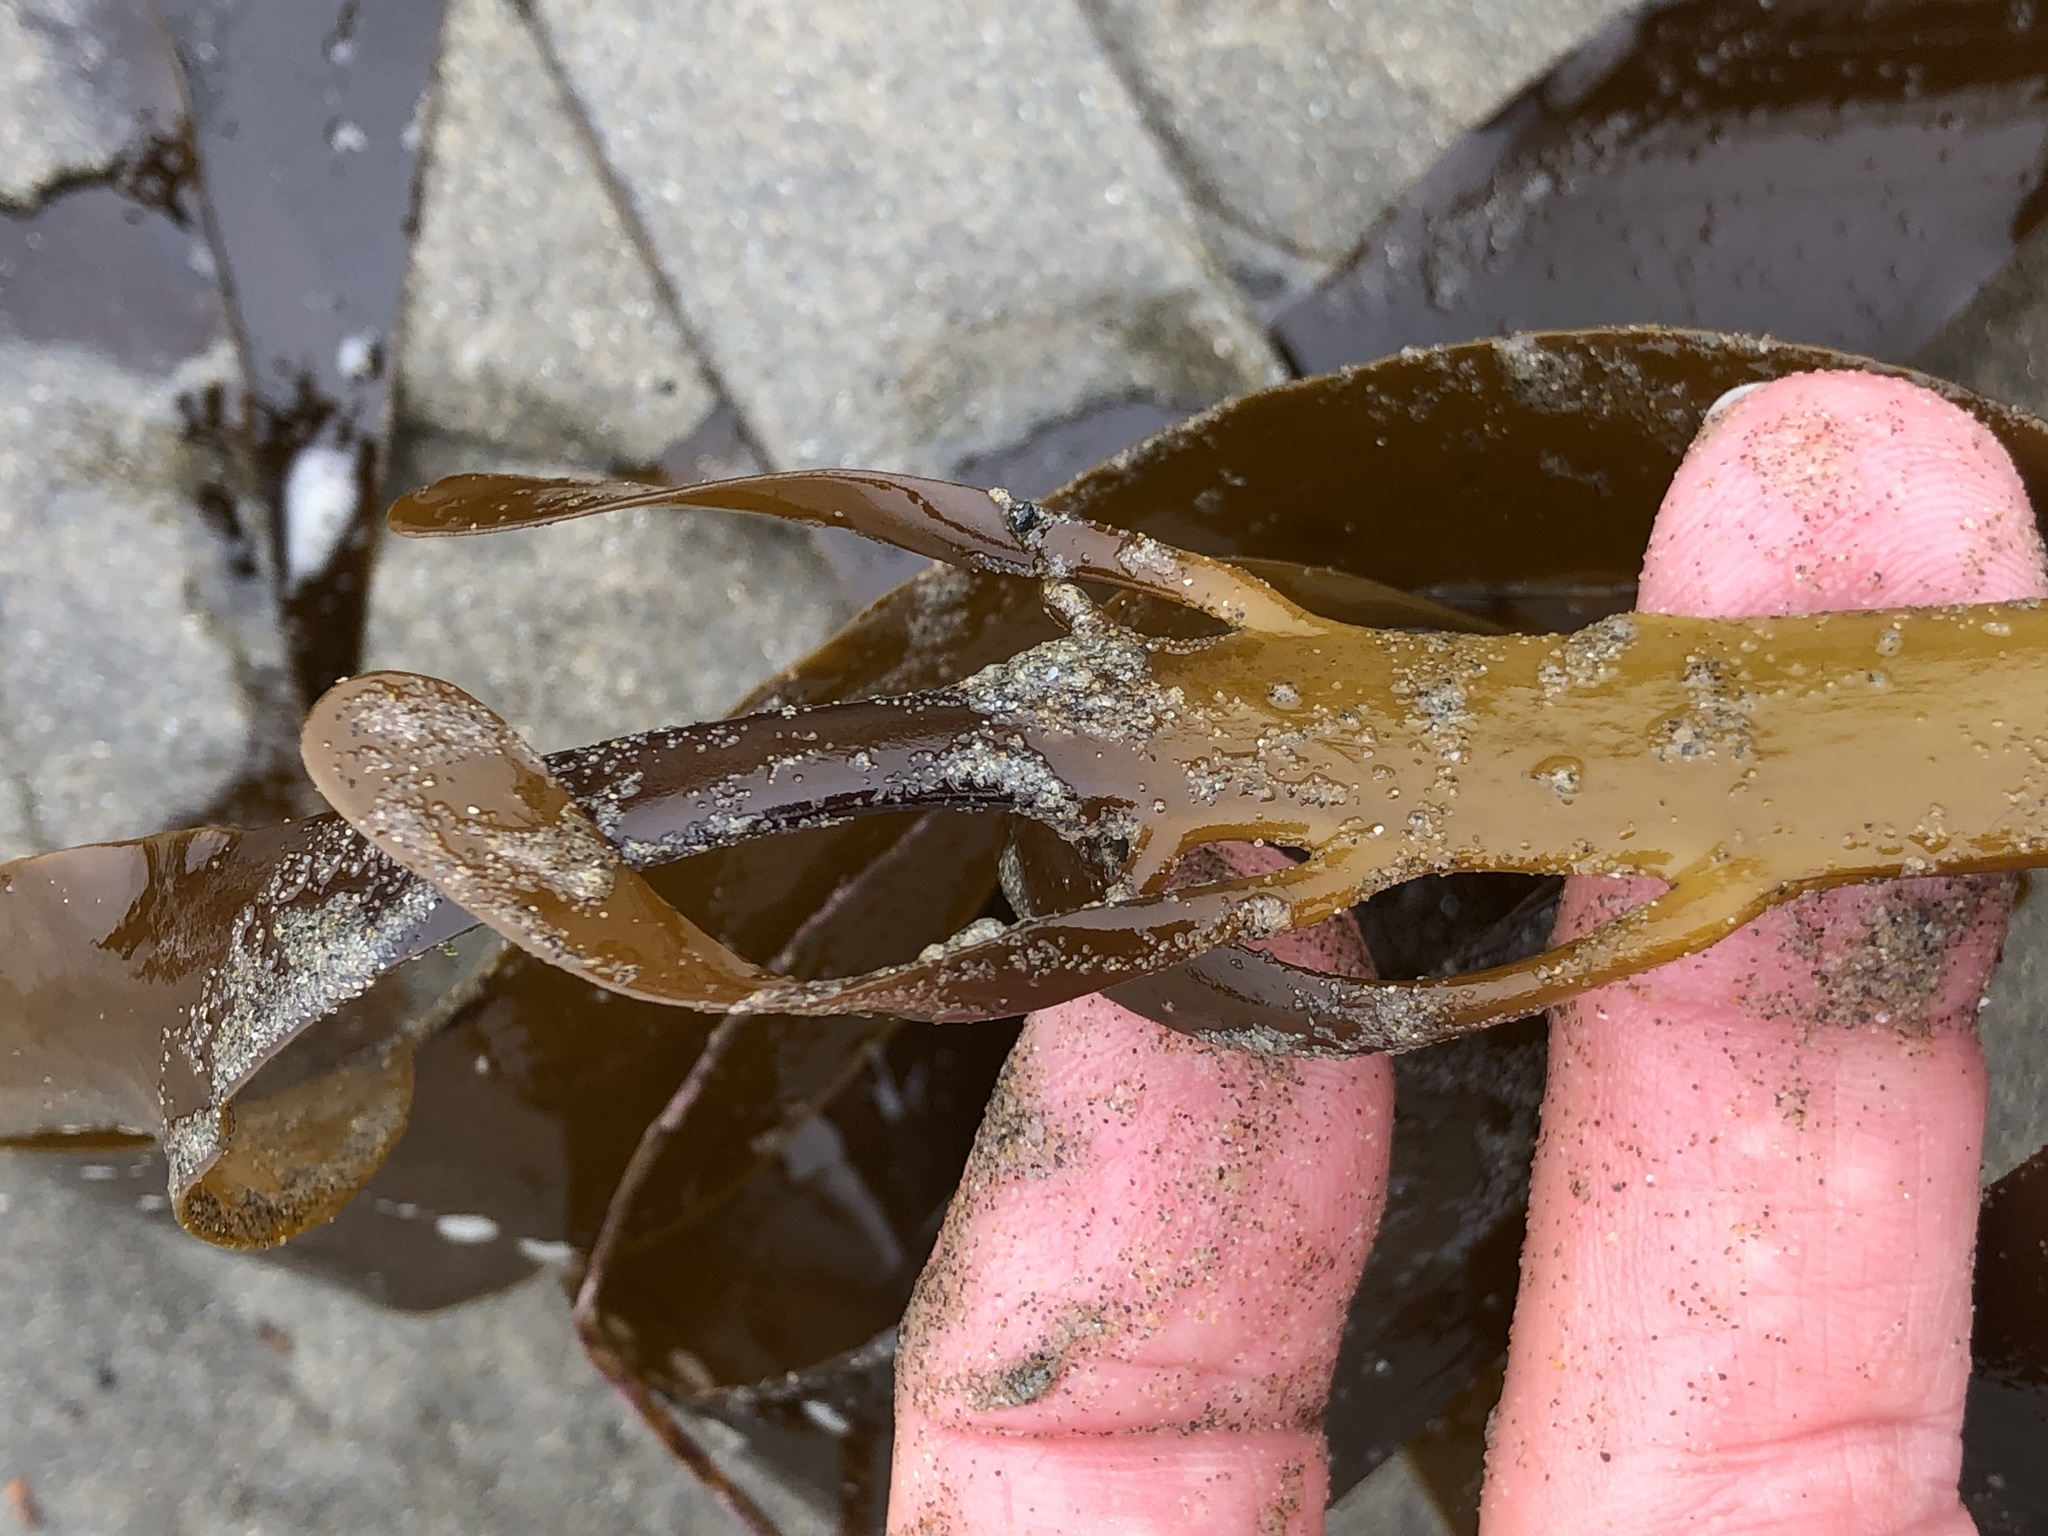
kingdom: Chromista
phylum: Ochrophyta
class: Phaeophyceae
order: Laminariales
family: Alariaceae
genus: Pterygophora
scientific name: Pterygophora californica
